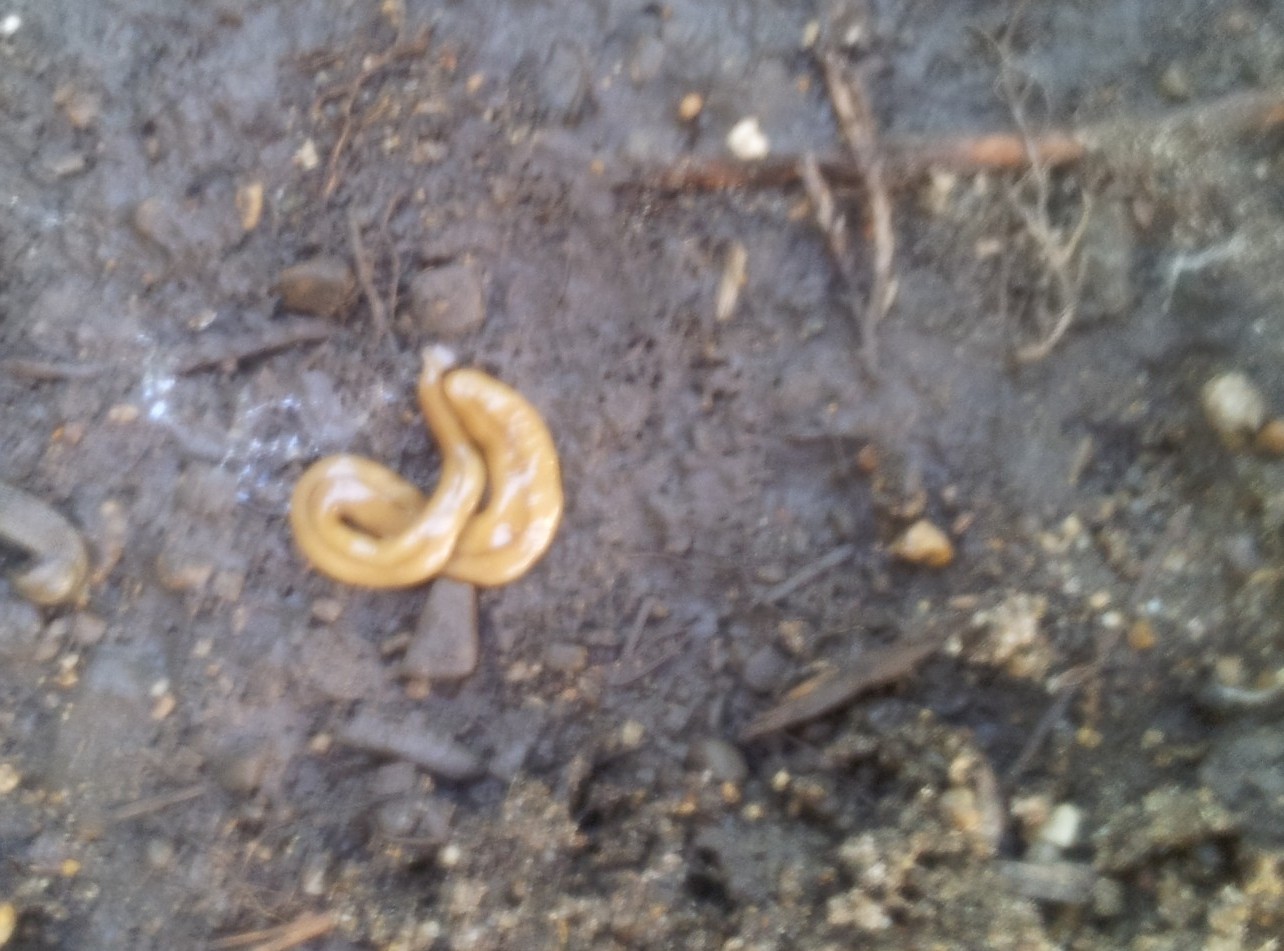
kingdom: Animalia
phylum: Platyhelminthes
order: Tricladida
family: Geoplanidae
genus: Bipalium
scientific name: Bipalium adventitium
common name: Land planarian
